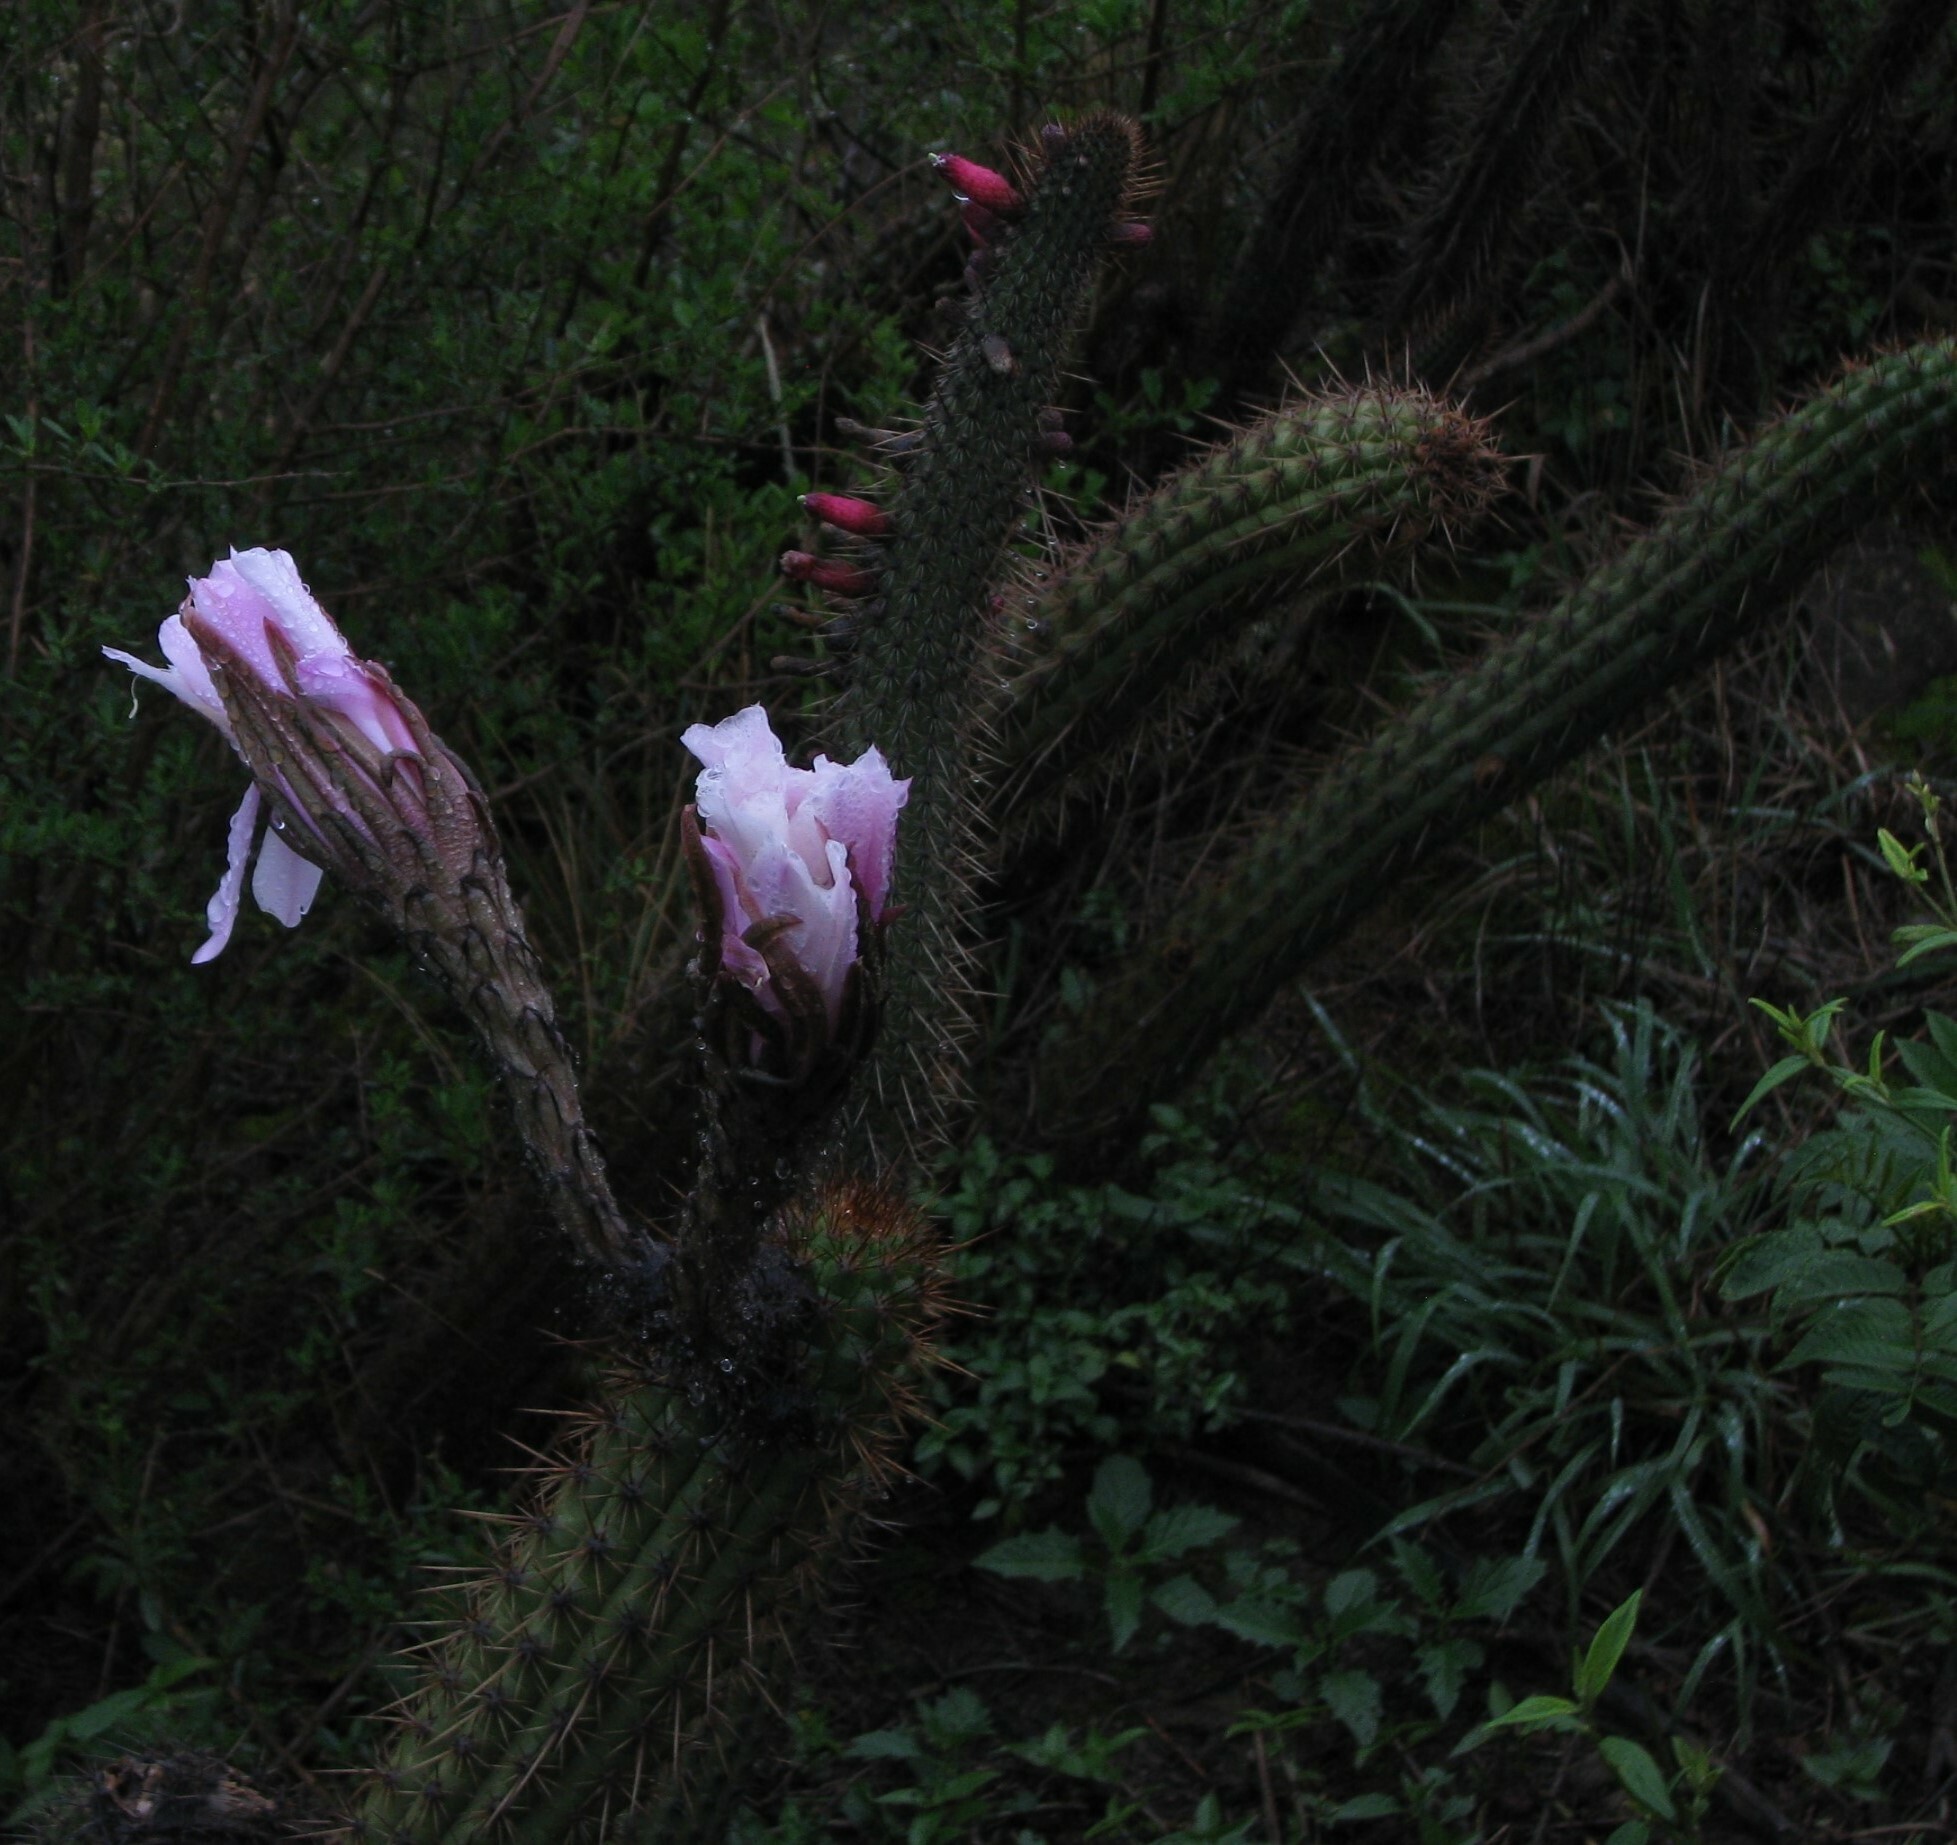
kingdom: Plantae
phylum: Tracheophyta
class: Magnoliopsida
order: Caryophyllales
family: Cactaceae
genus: Soehrensia
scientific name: Soehrensia vasquezii
